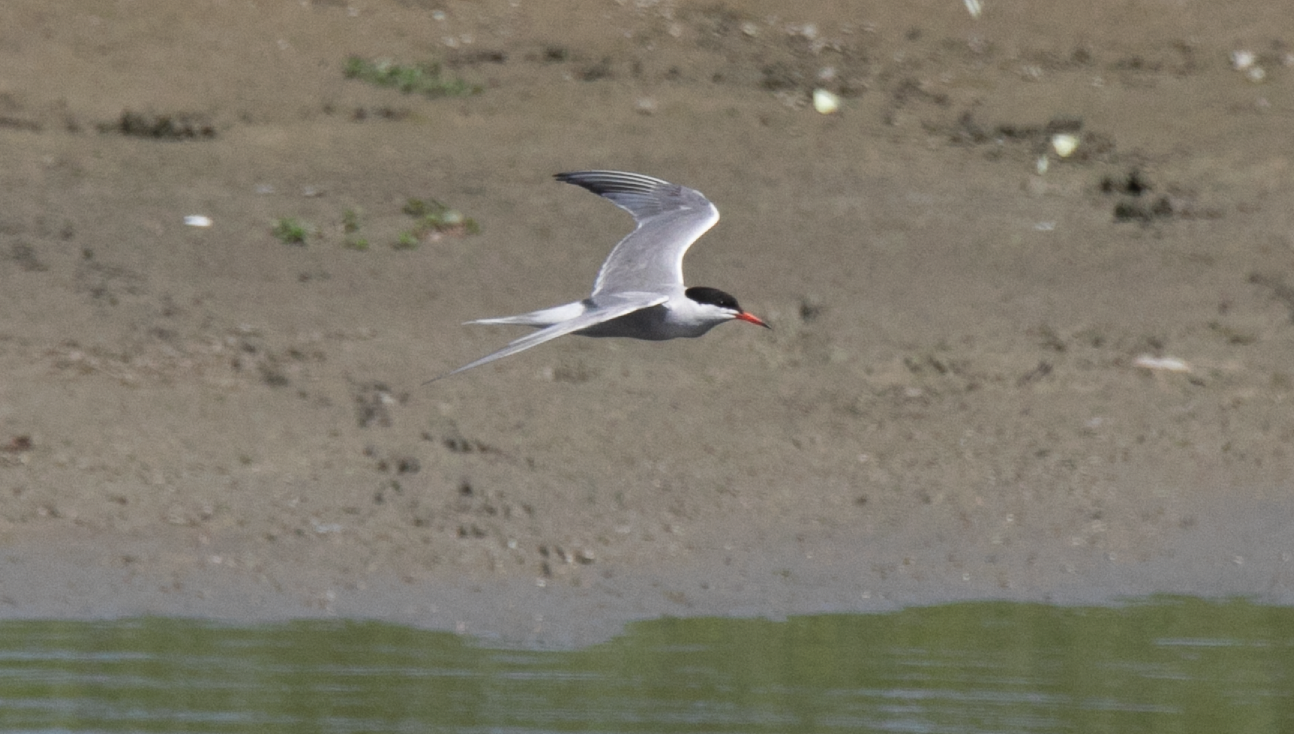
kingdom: Animalia
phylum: Chordata
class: Aves
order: Charadriiformes
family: Laridae
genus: Sterna
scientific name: Sterna hirundo
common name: Common tern
